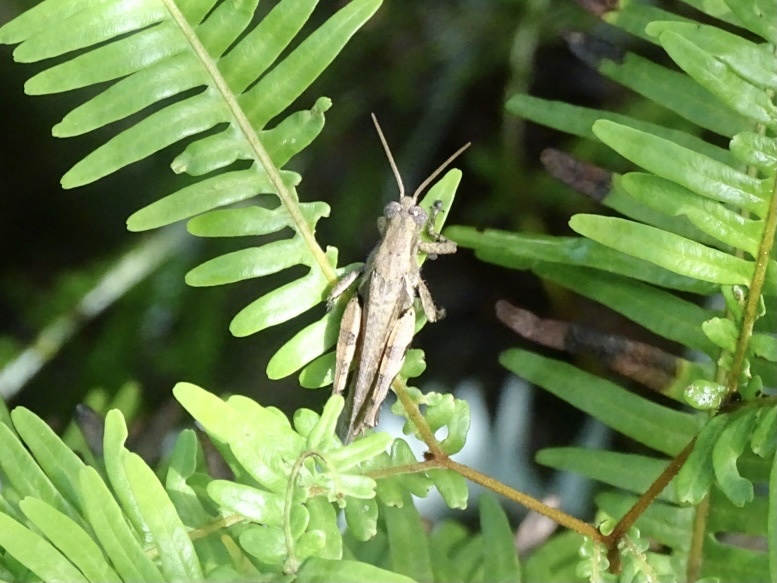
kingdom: Animalia
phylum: Arthropoda
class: Insecta
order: Orthoptera
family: Acrididae
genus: Xenocatantops
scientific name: Xenocatantops humile
